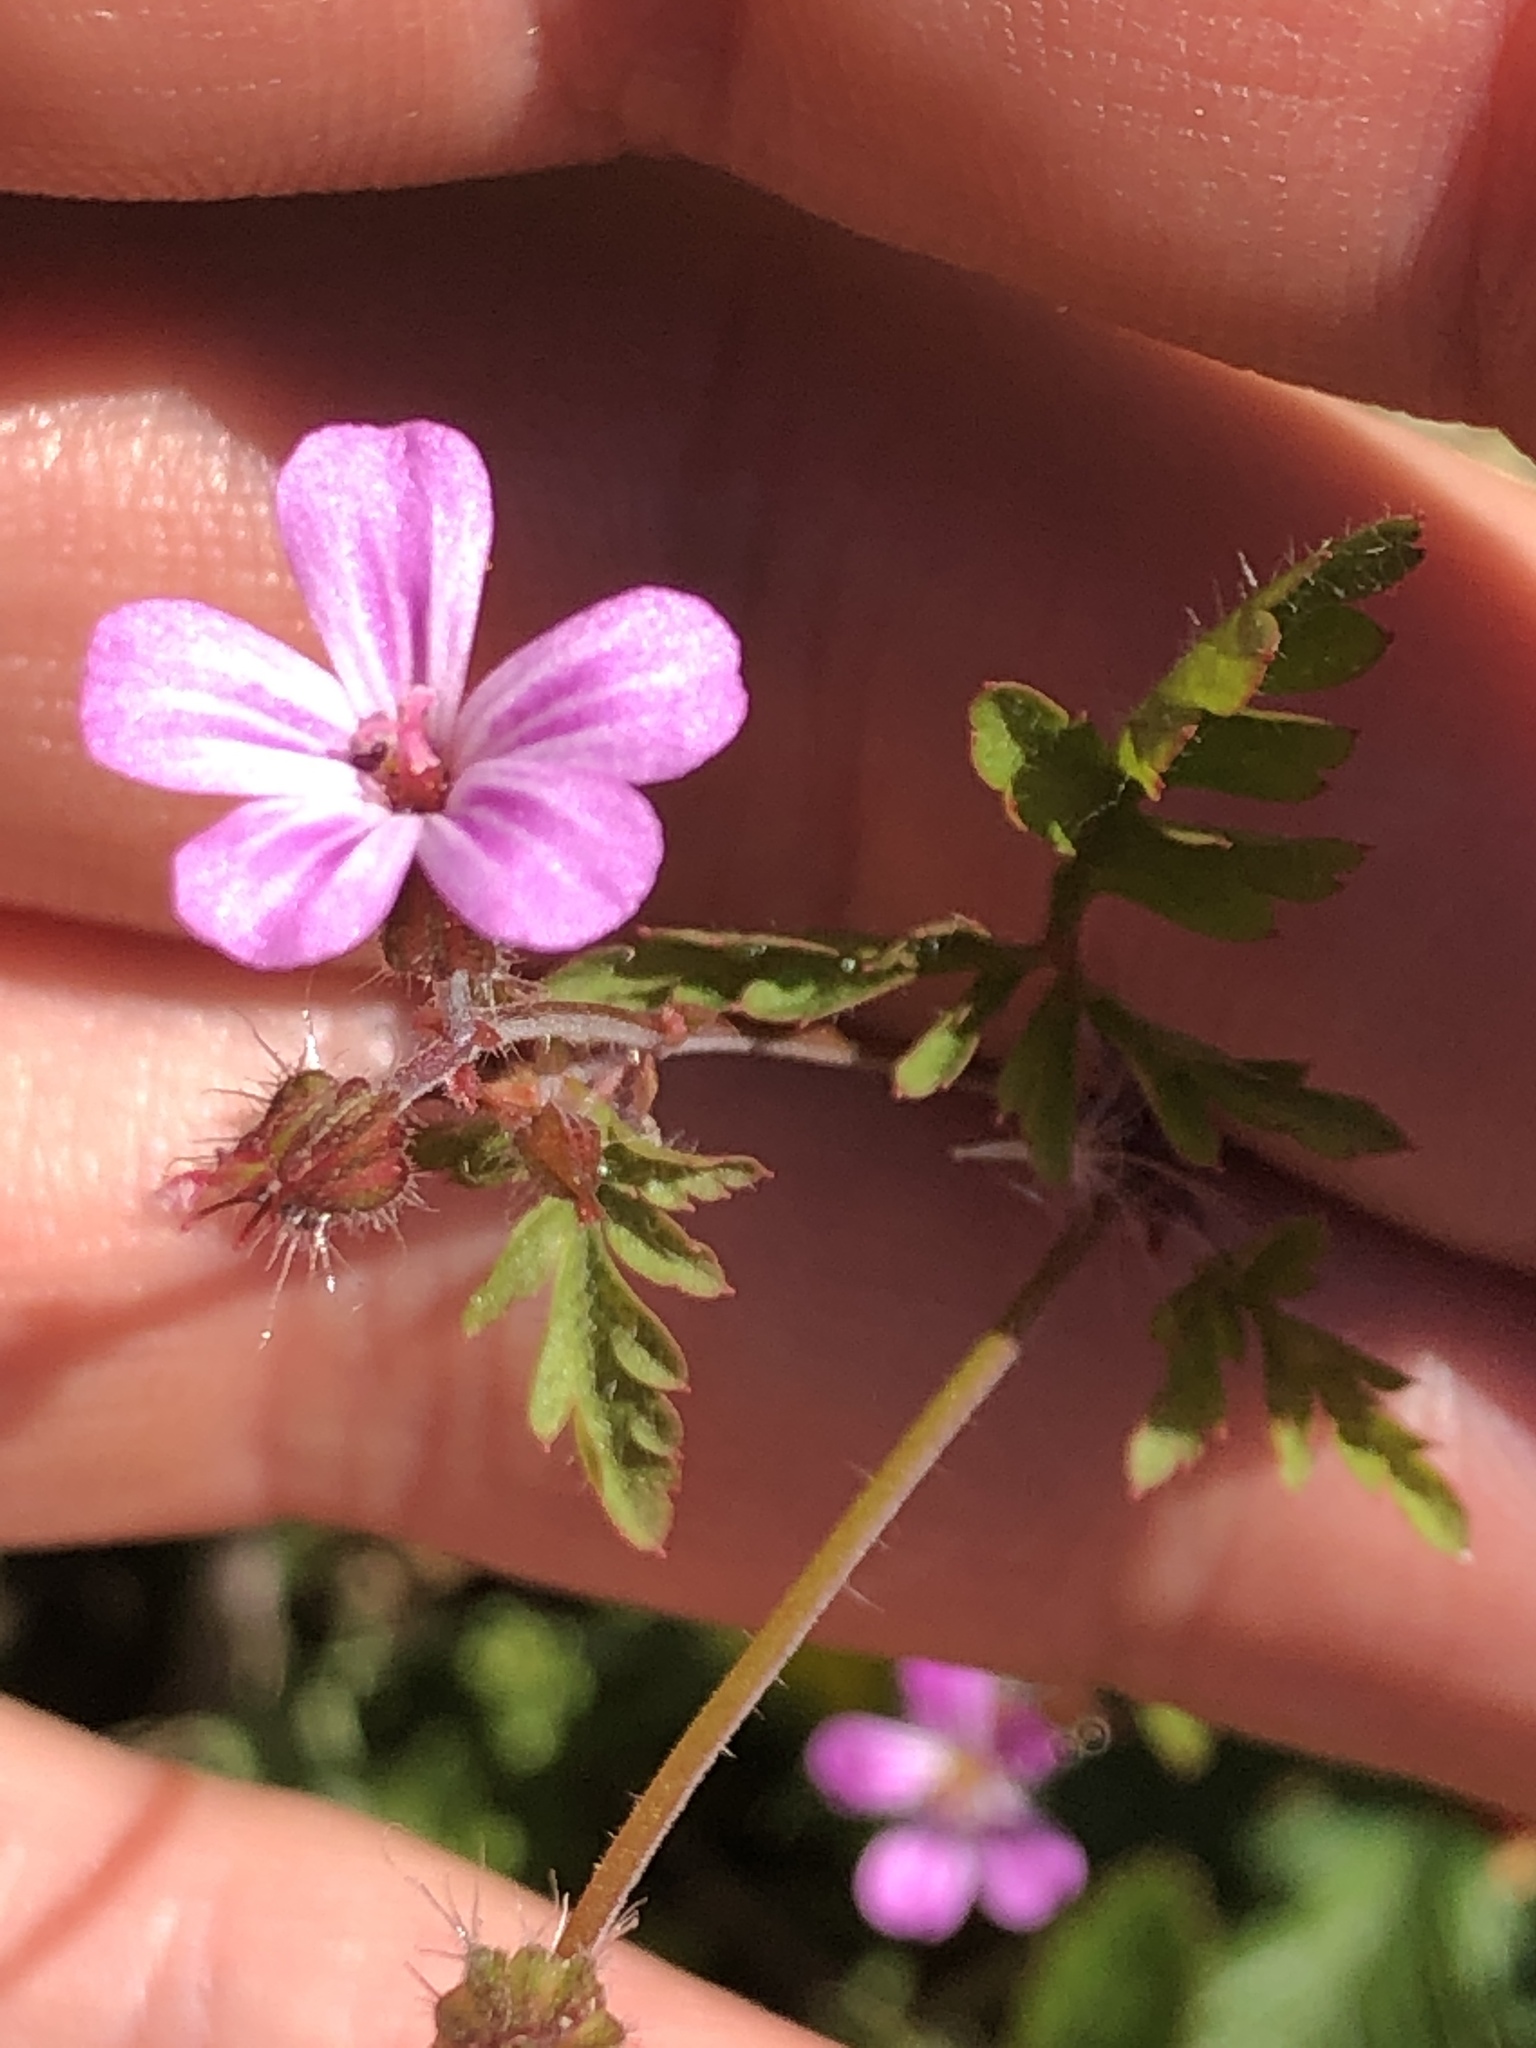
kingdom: Plantae
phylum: Tracheophyta
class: Magnoliopsida
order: Geraniales
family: Geraniaceae
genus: Geranium
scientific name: Geranium robertianum
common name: Herb-robert
